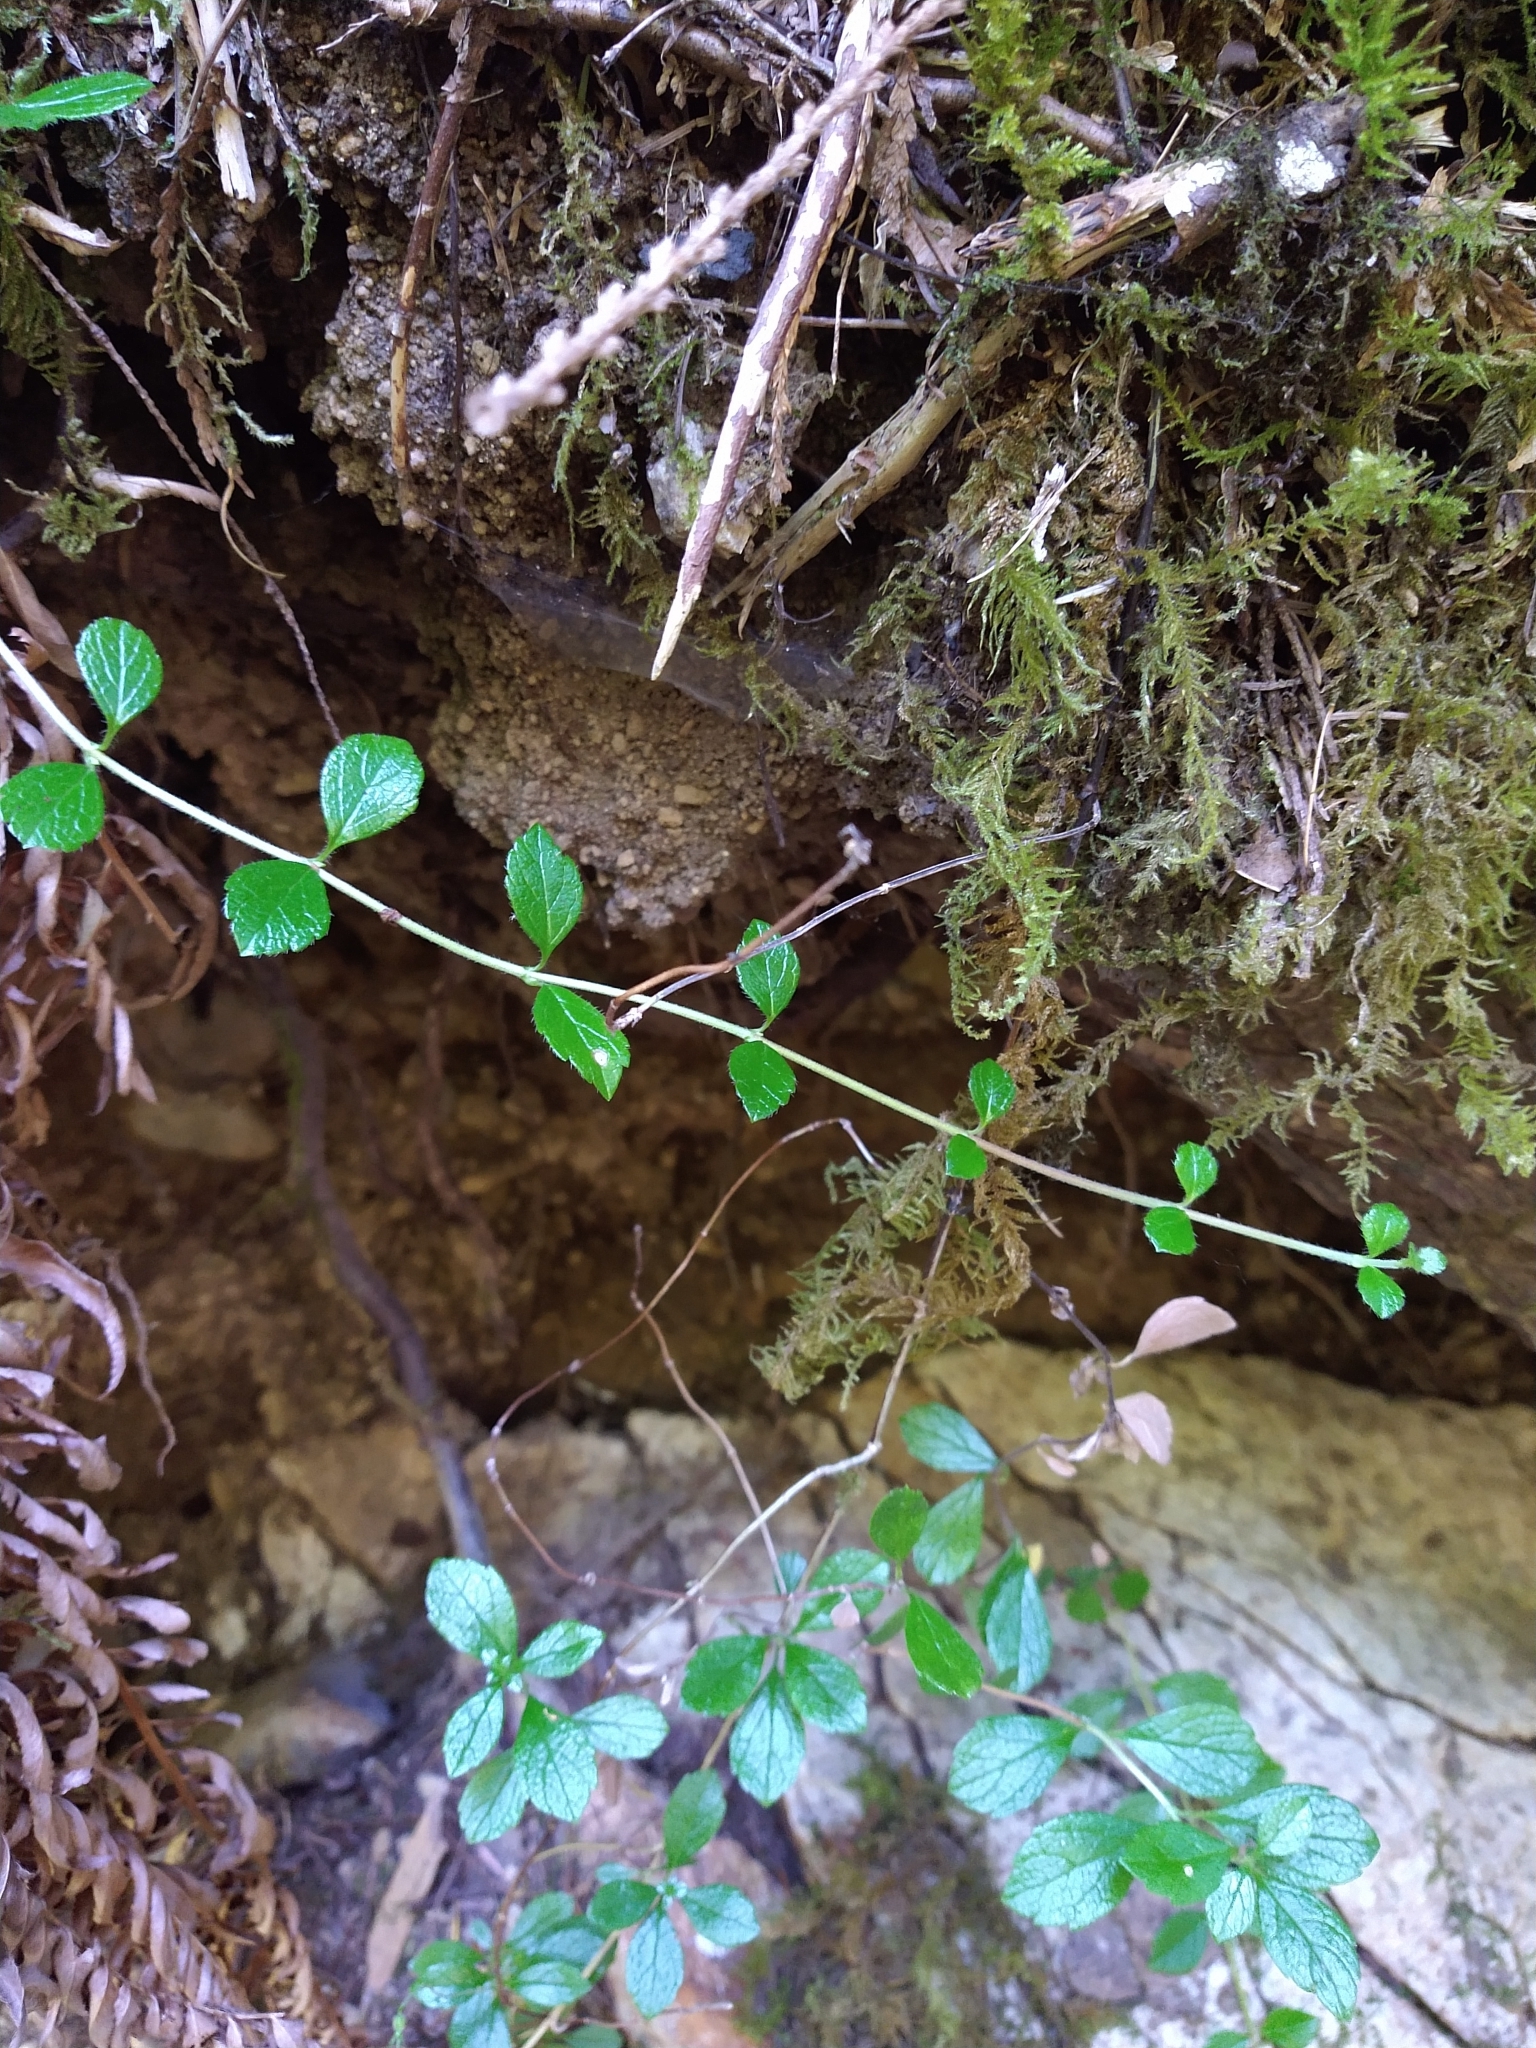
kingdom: Plantae
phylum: Tracheophyta
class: Magnoliopsida
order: Dipsacales
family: Caprifoliaceae
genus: Linnaea
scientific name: Linnaea borealis
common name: Twinflower
